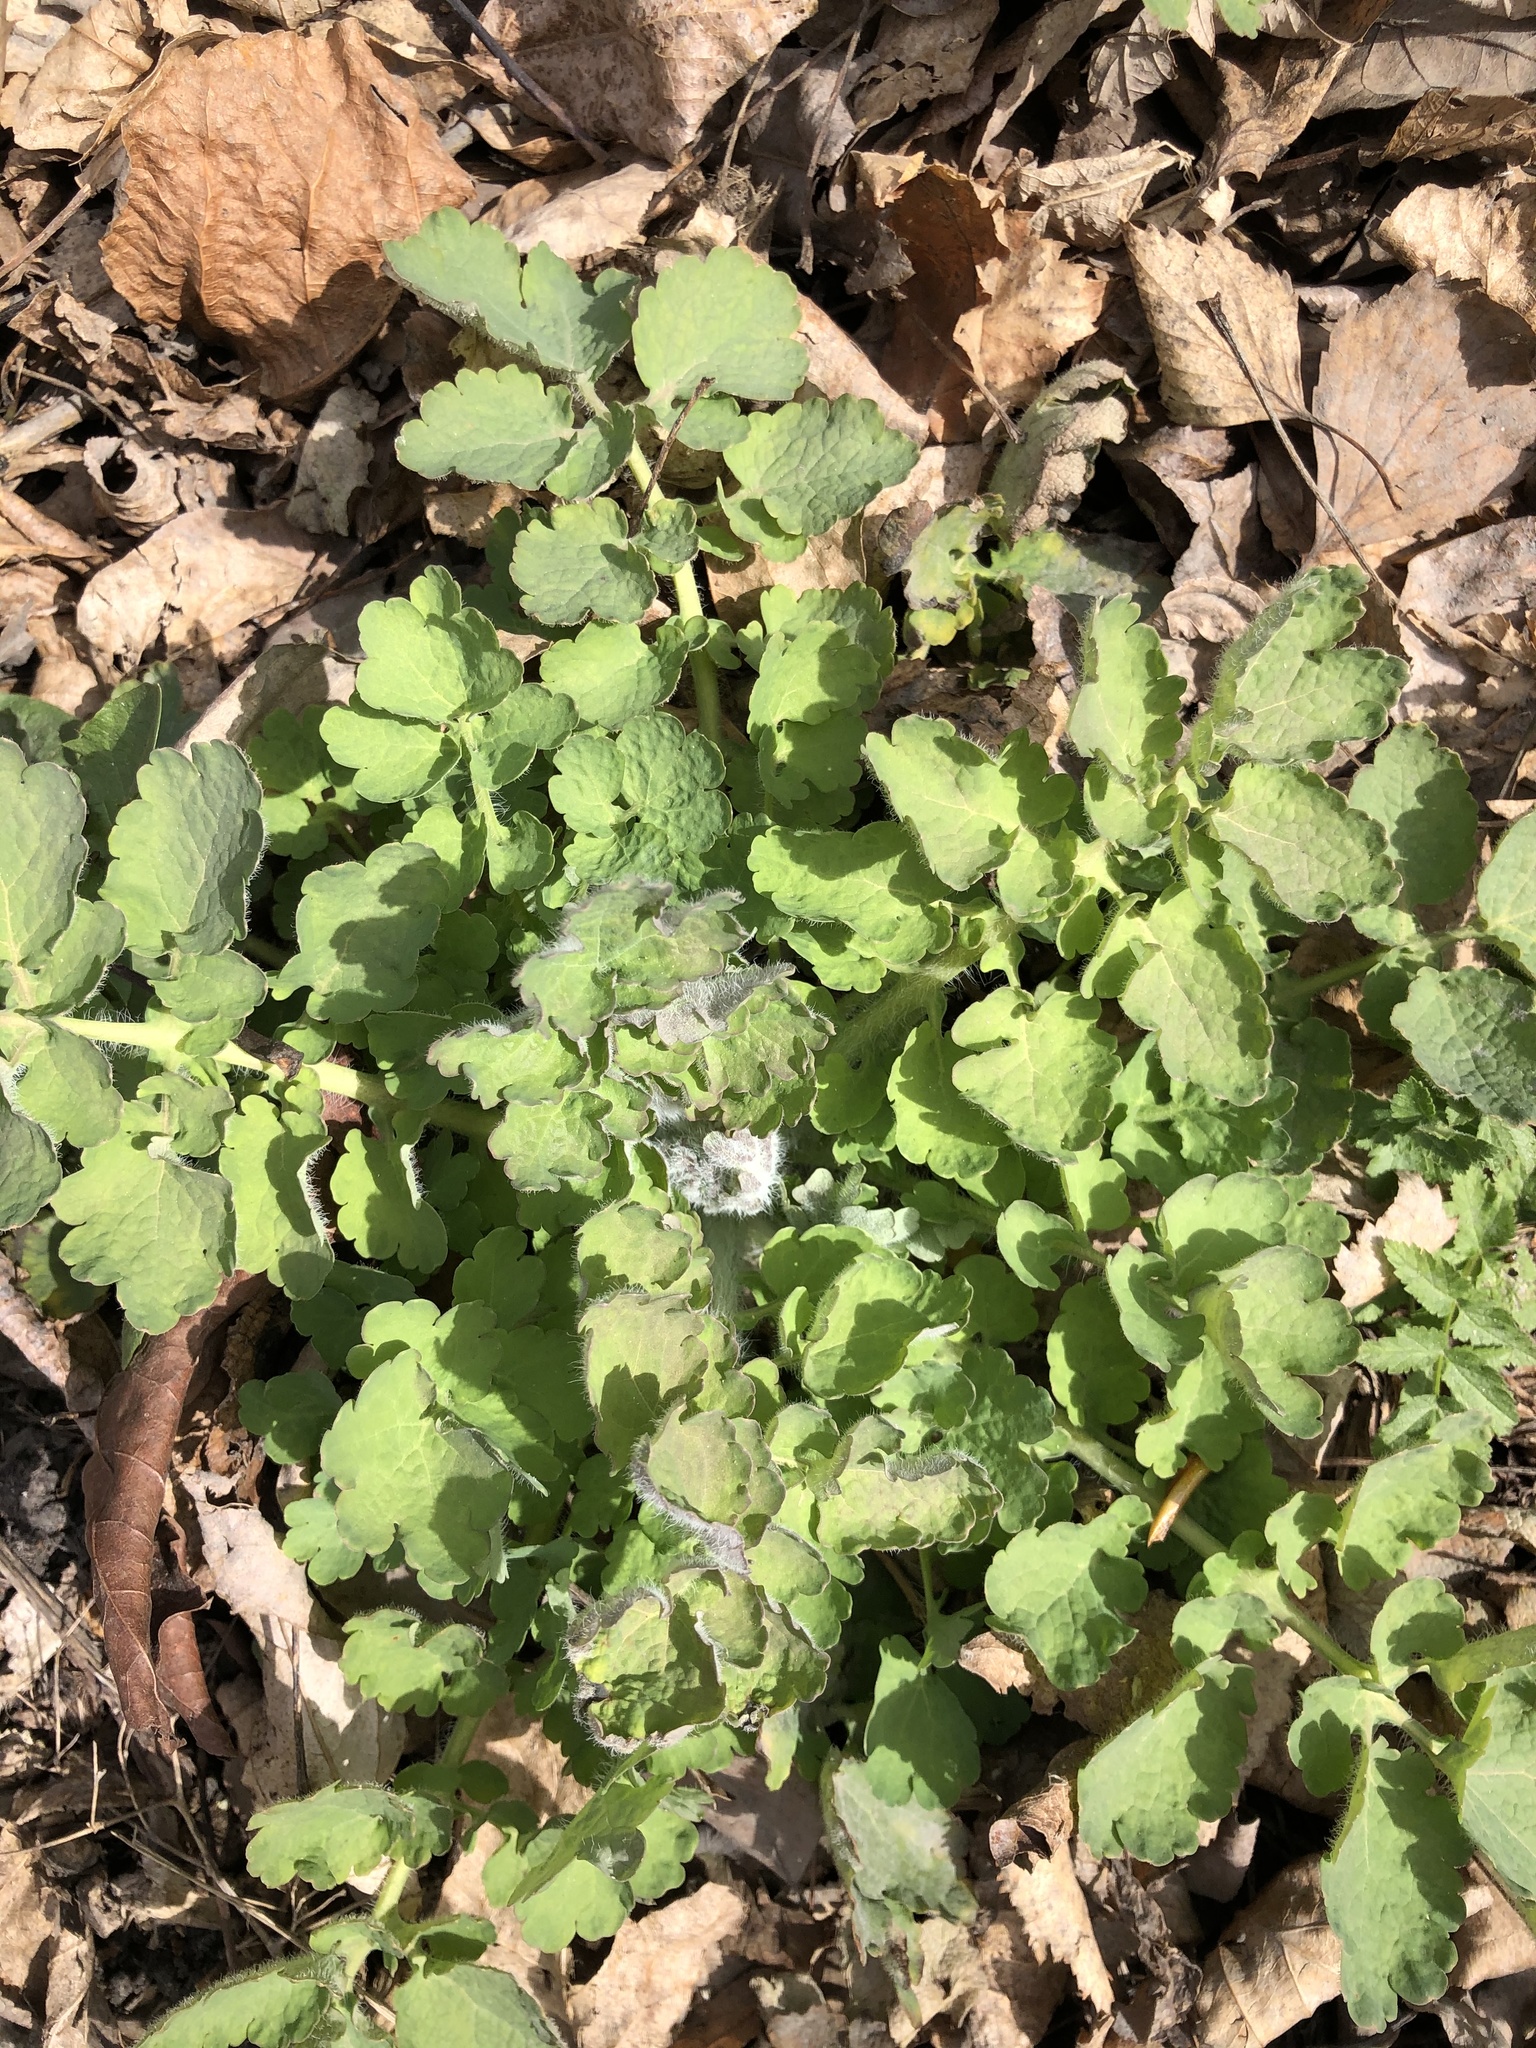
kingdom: Plantae
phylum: Tracheophyta
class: Magnoliopsida
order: Ranunculales
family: Papaveraceae
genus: Chelidonium
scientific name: Chelidonium majus
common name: Greater celandine
